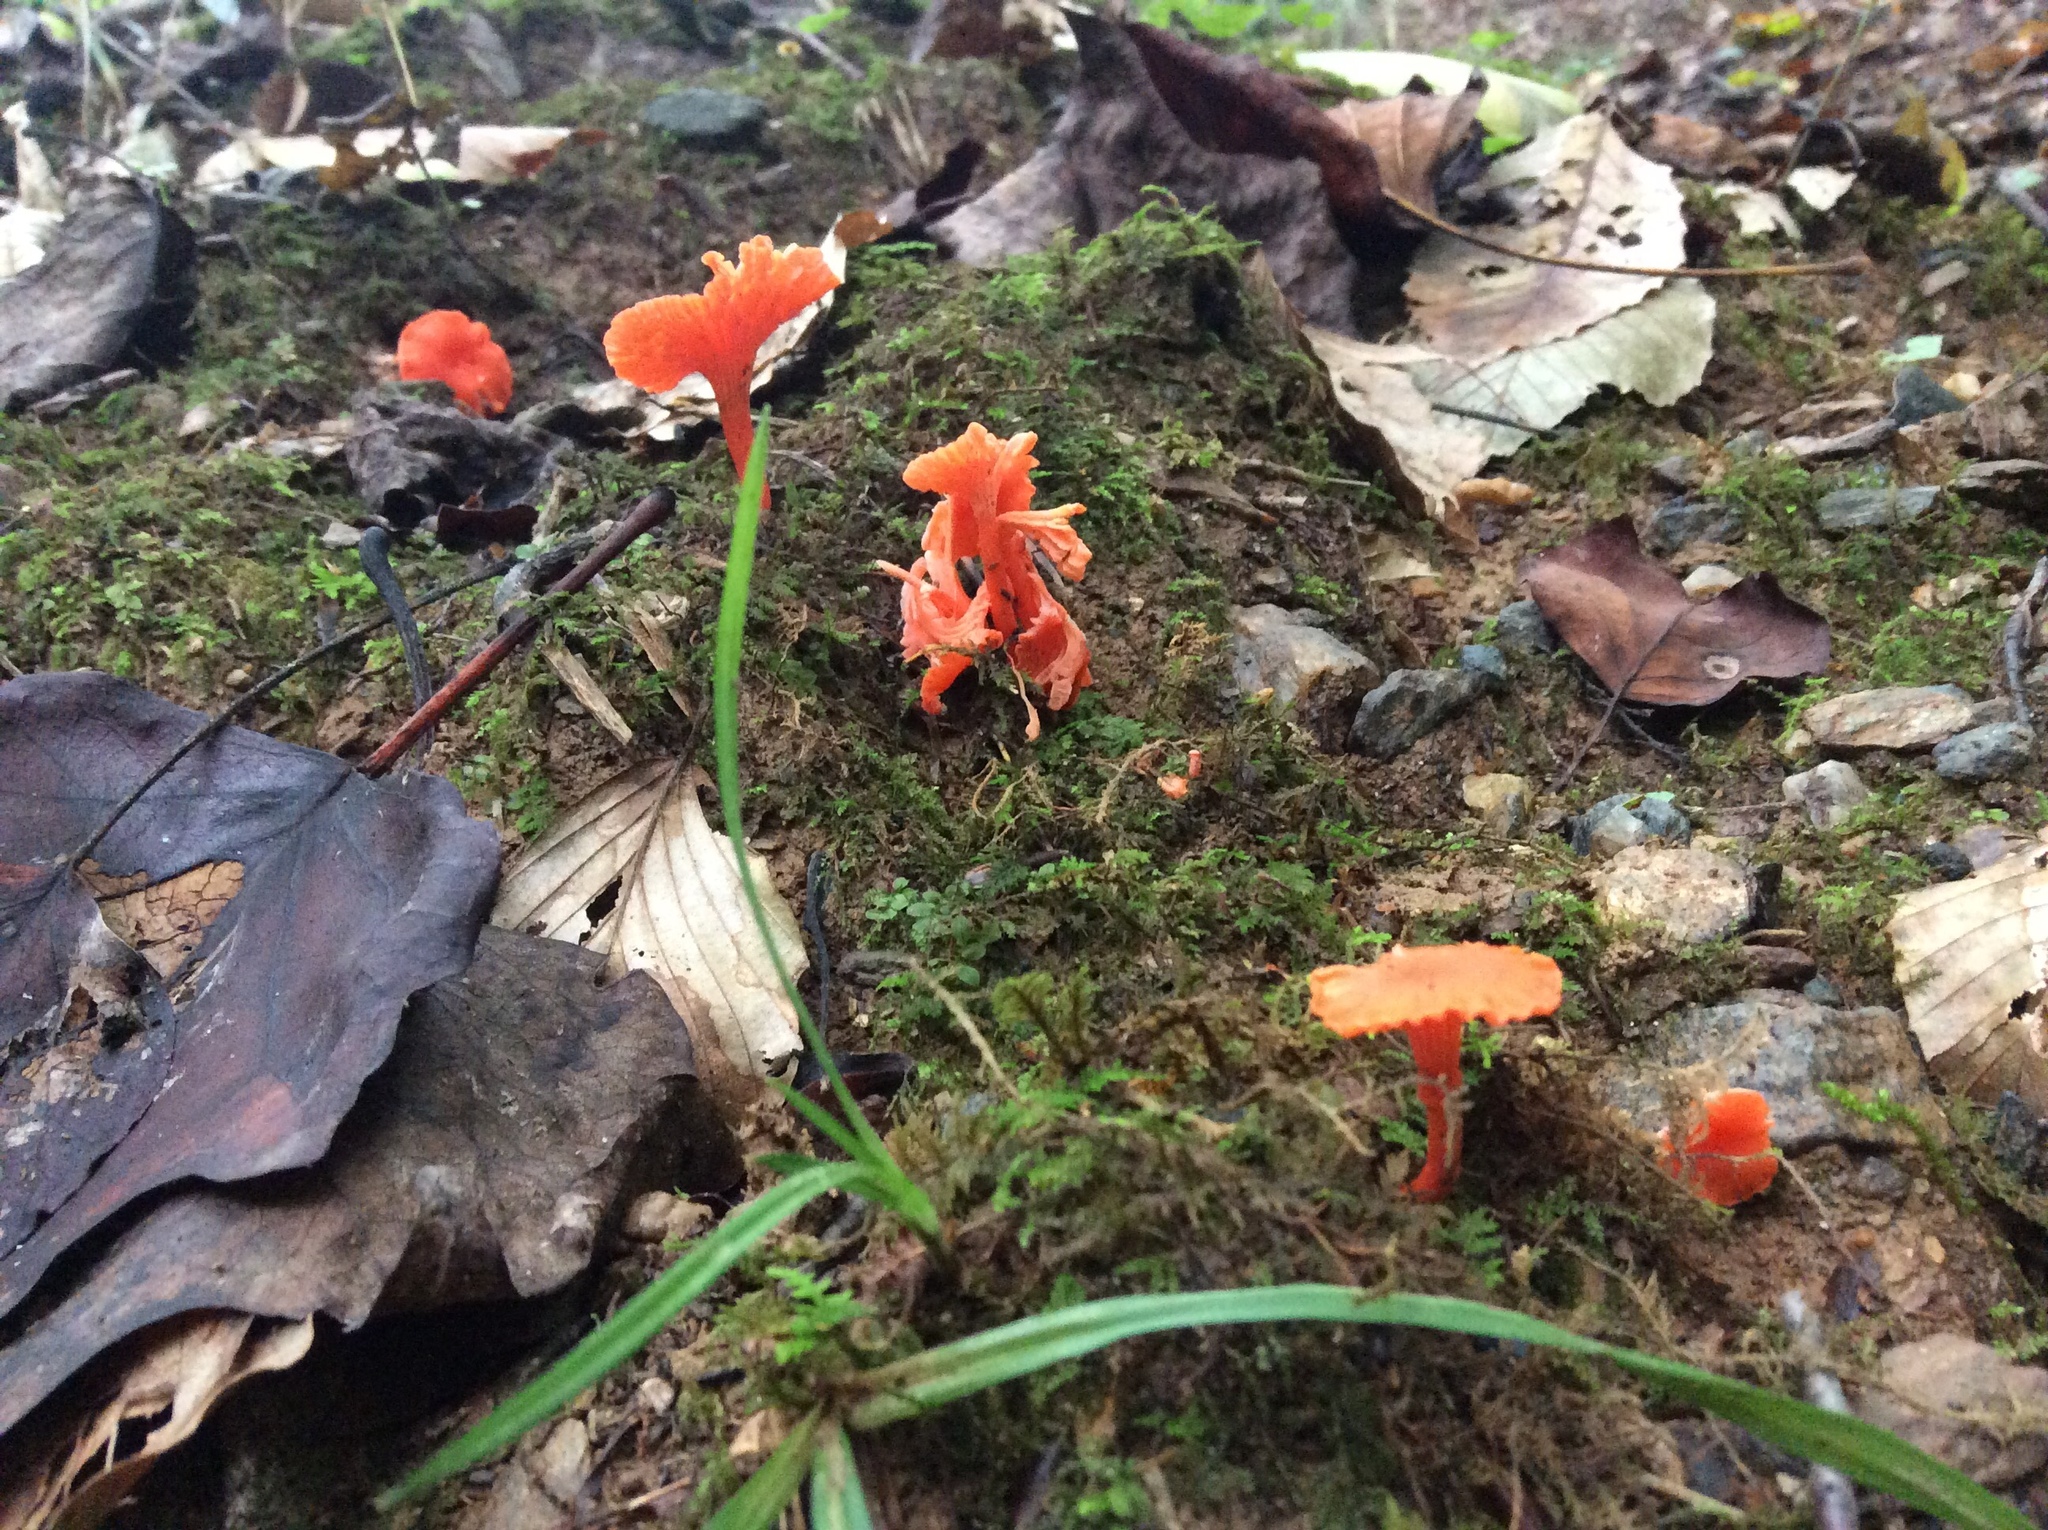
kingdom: Fungi
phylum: Basidiomycota
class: Agaricomycetes
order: Cantharellales
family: Hydnaceae
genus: Cantharellus
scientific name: Cantharellus cinnabarinus
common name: Cinnabar chanterelle
